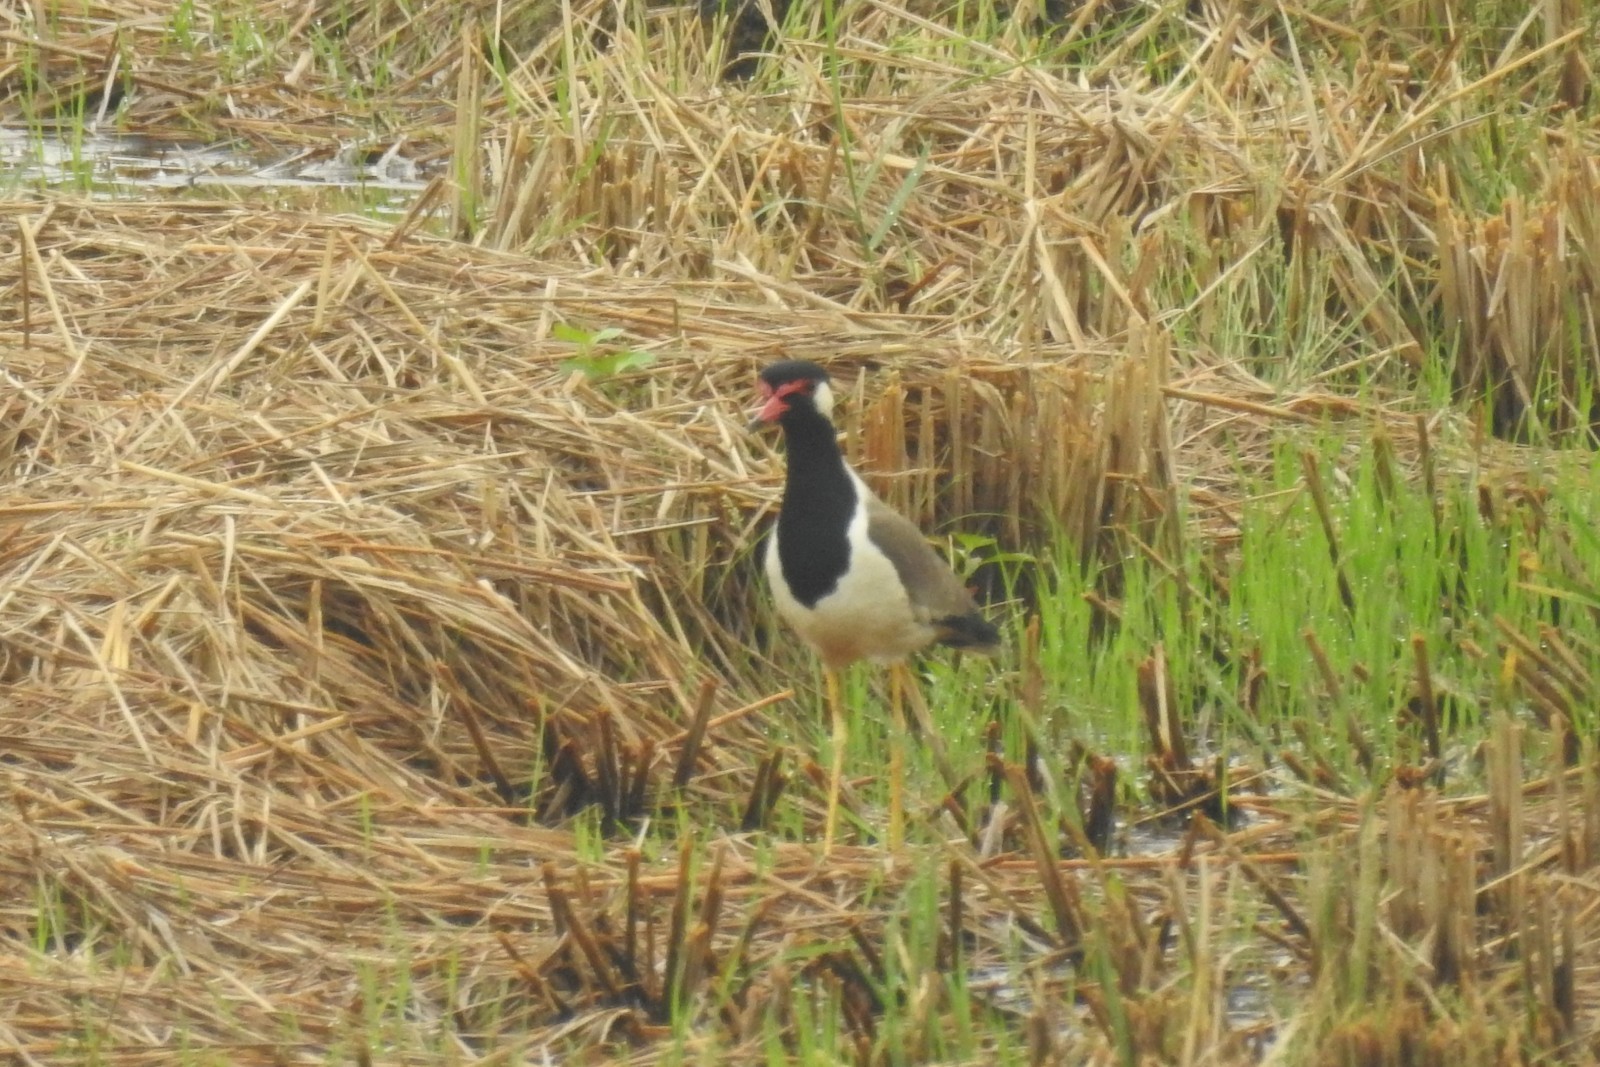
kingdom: Animalia
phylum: Chordata
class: Aves
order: Charadriiformes
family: Charadriidae
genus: Vanellus
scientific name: Vanellus indicus
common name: Red-wattled lapwing
